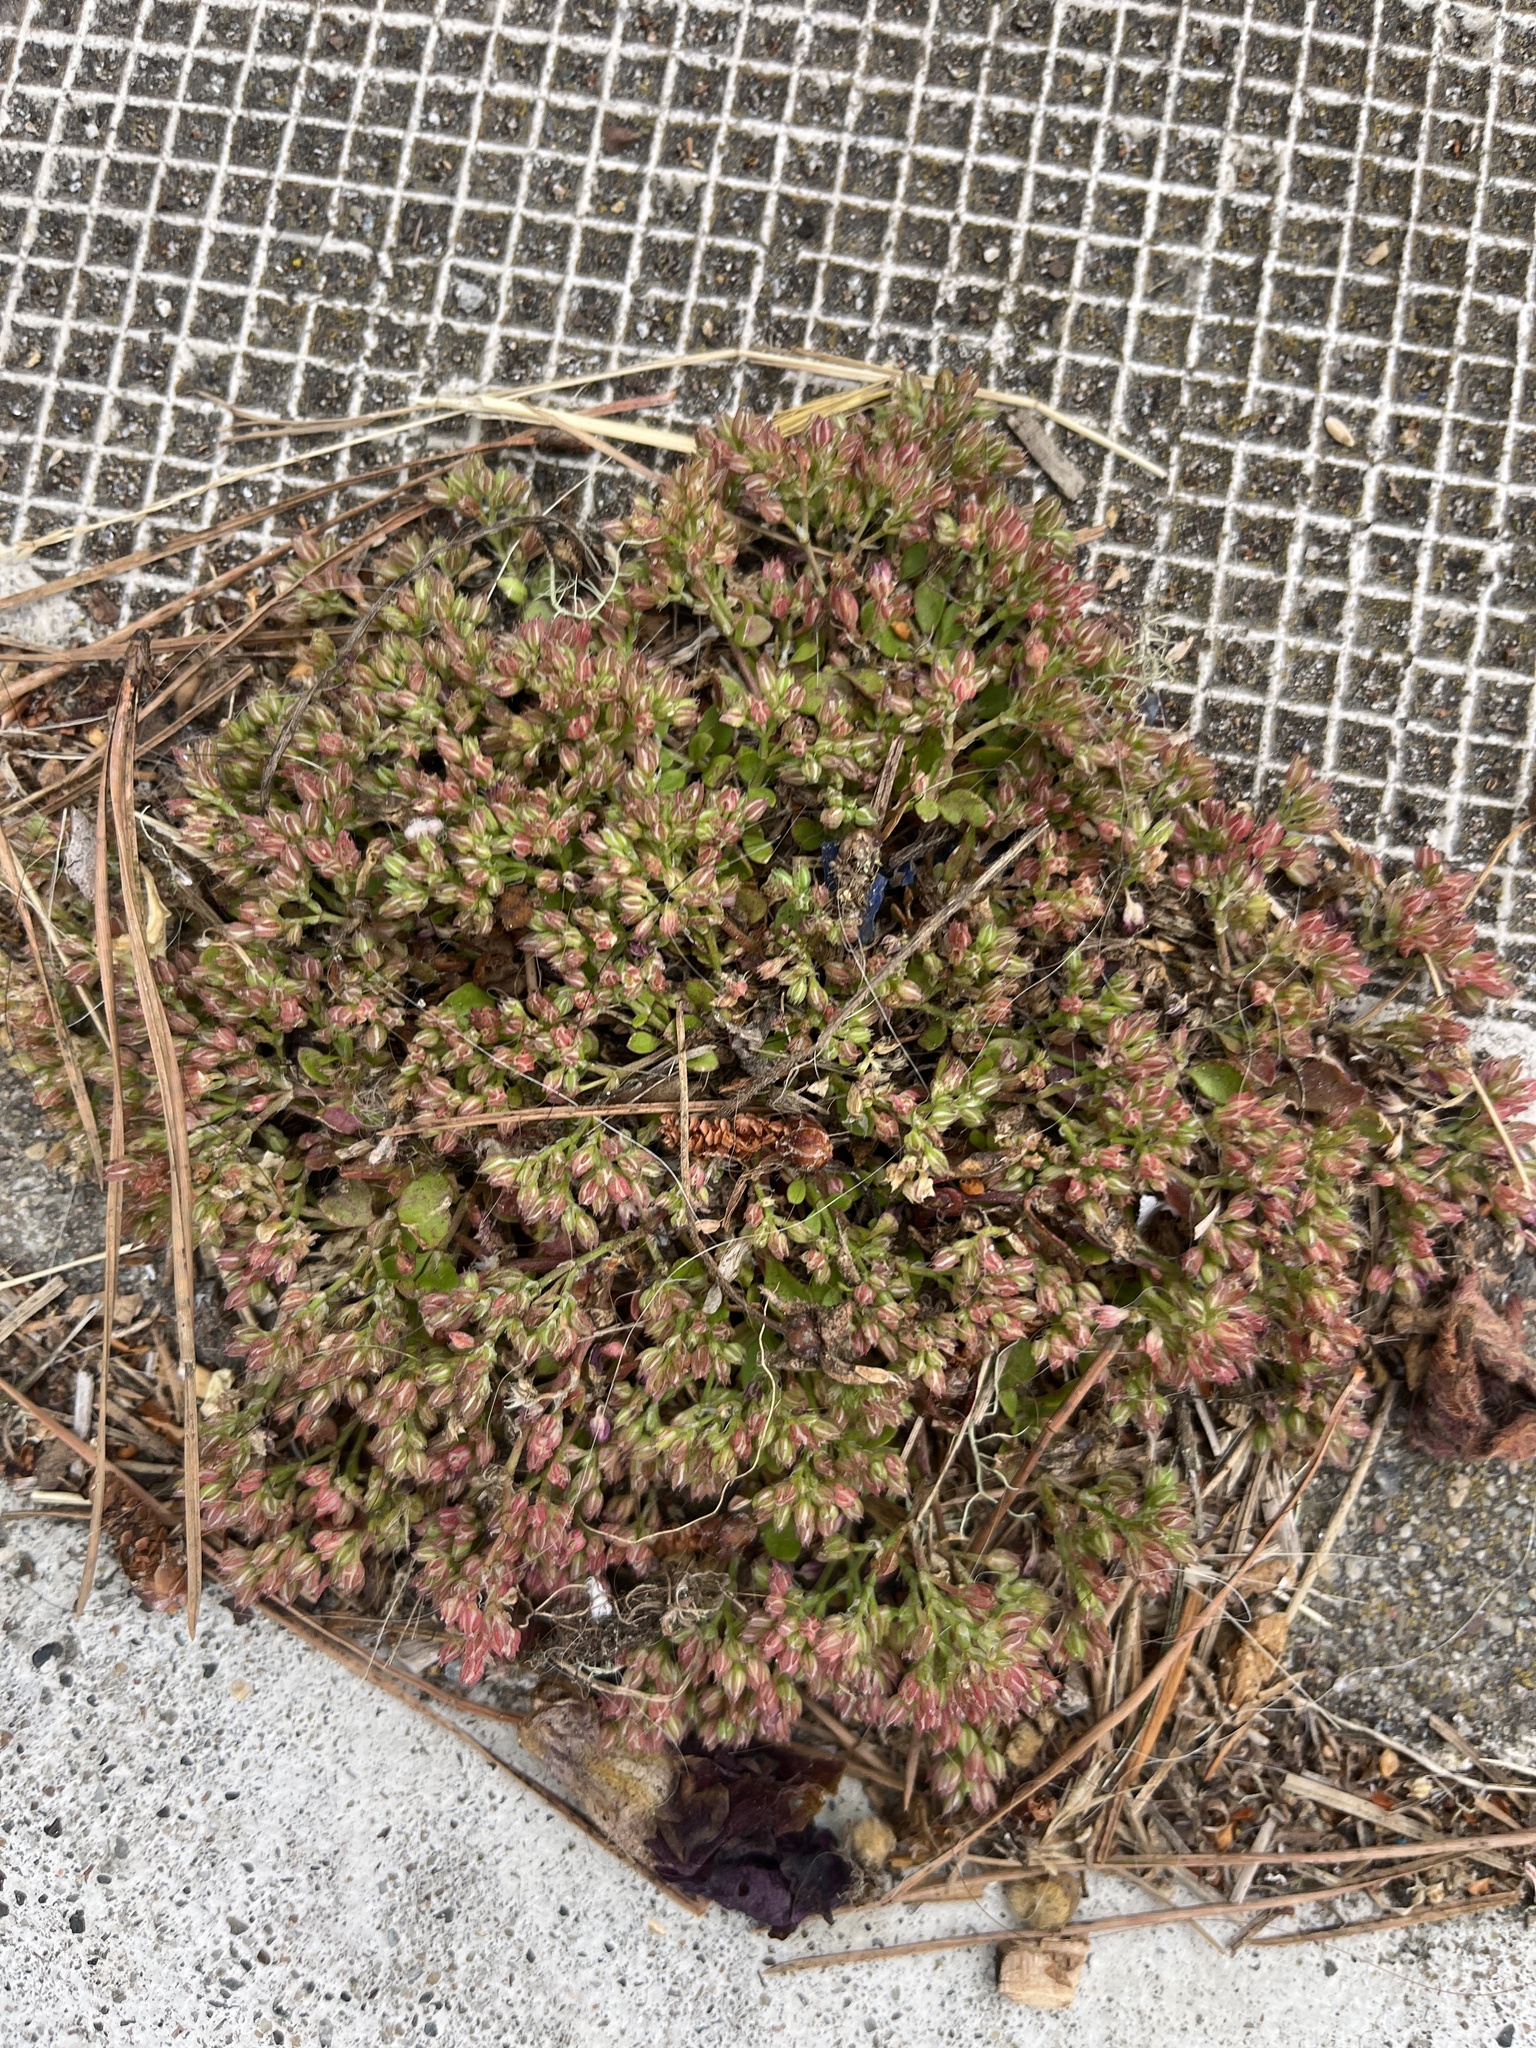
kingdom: Plantae
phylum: Tracheophyta
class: Magnoliopsida
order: Caryophyllales
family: Caryophyllaceae
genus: Polycarpon
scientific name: Polycarpon tetraphyllum
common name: Four-leaved all-seed
